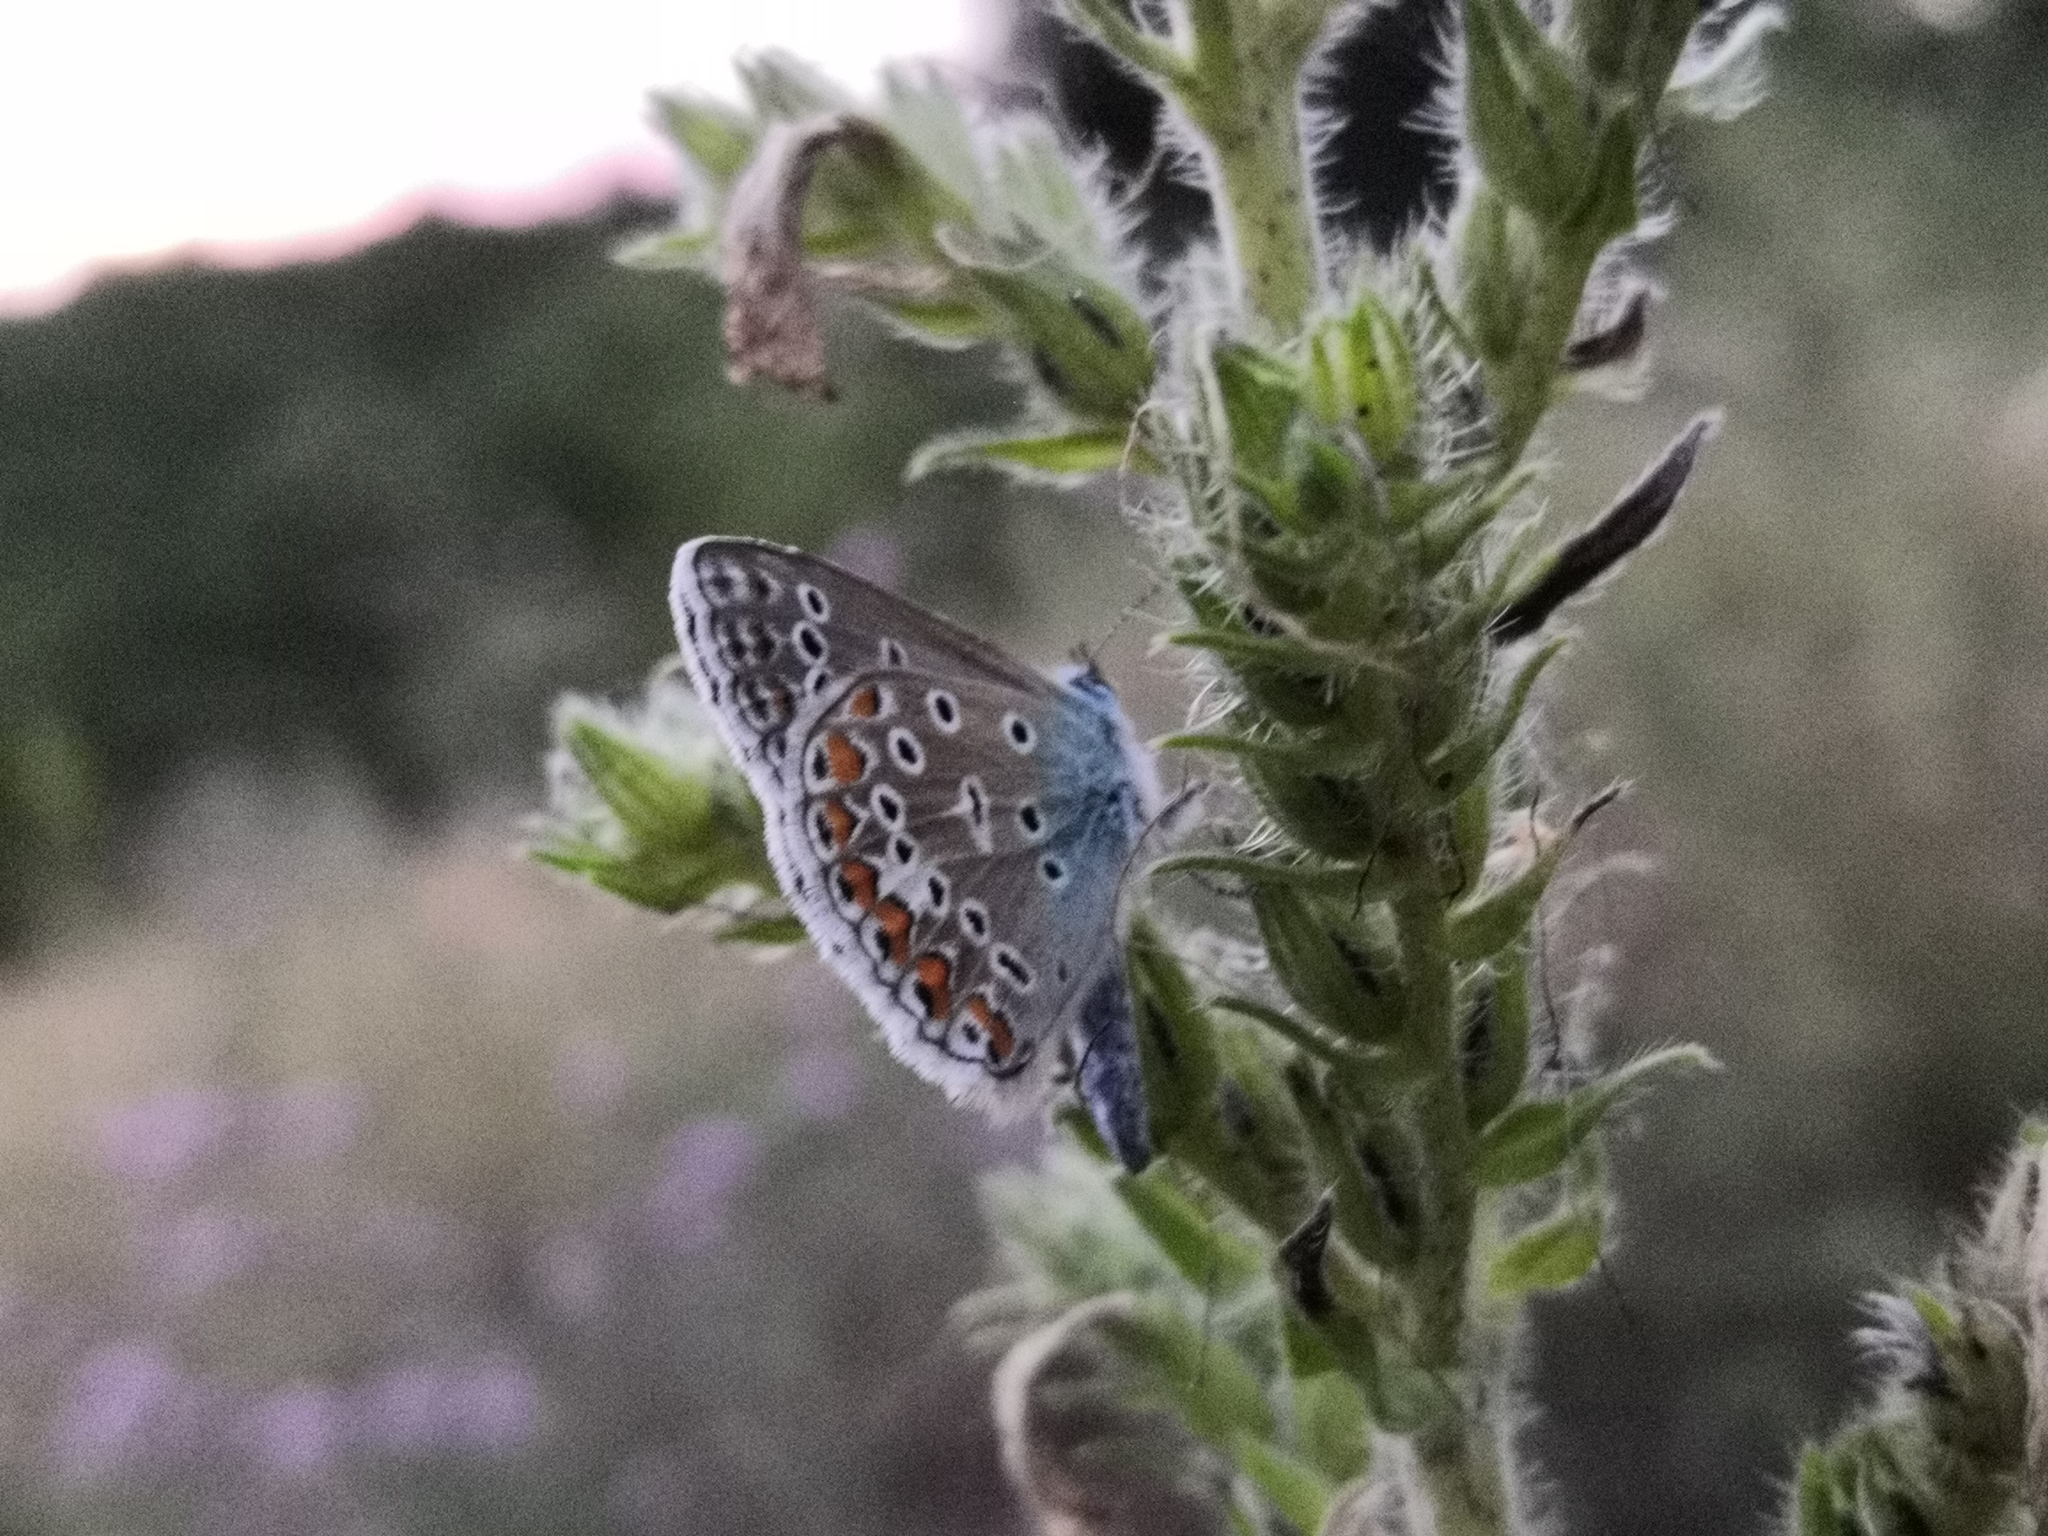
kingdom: Animalia
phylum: Arthropoda
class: Insecta
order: Lepidoptera
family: Lycaenidae
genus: Polyommatus
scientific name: Polyommatus icarus
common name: Common blue
